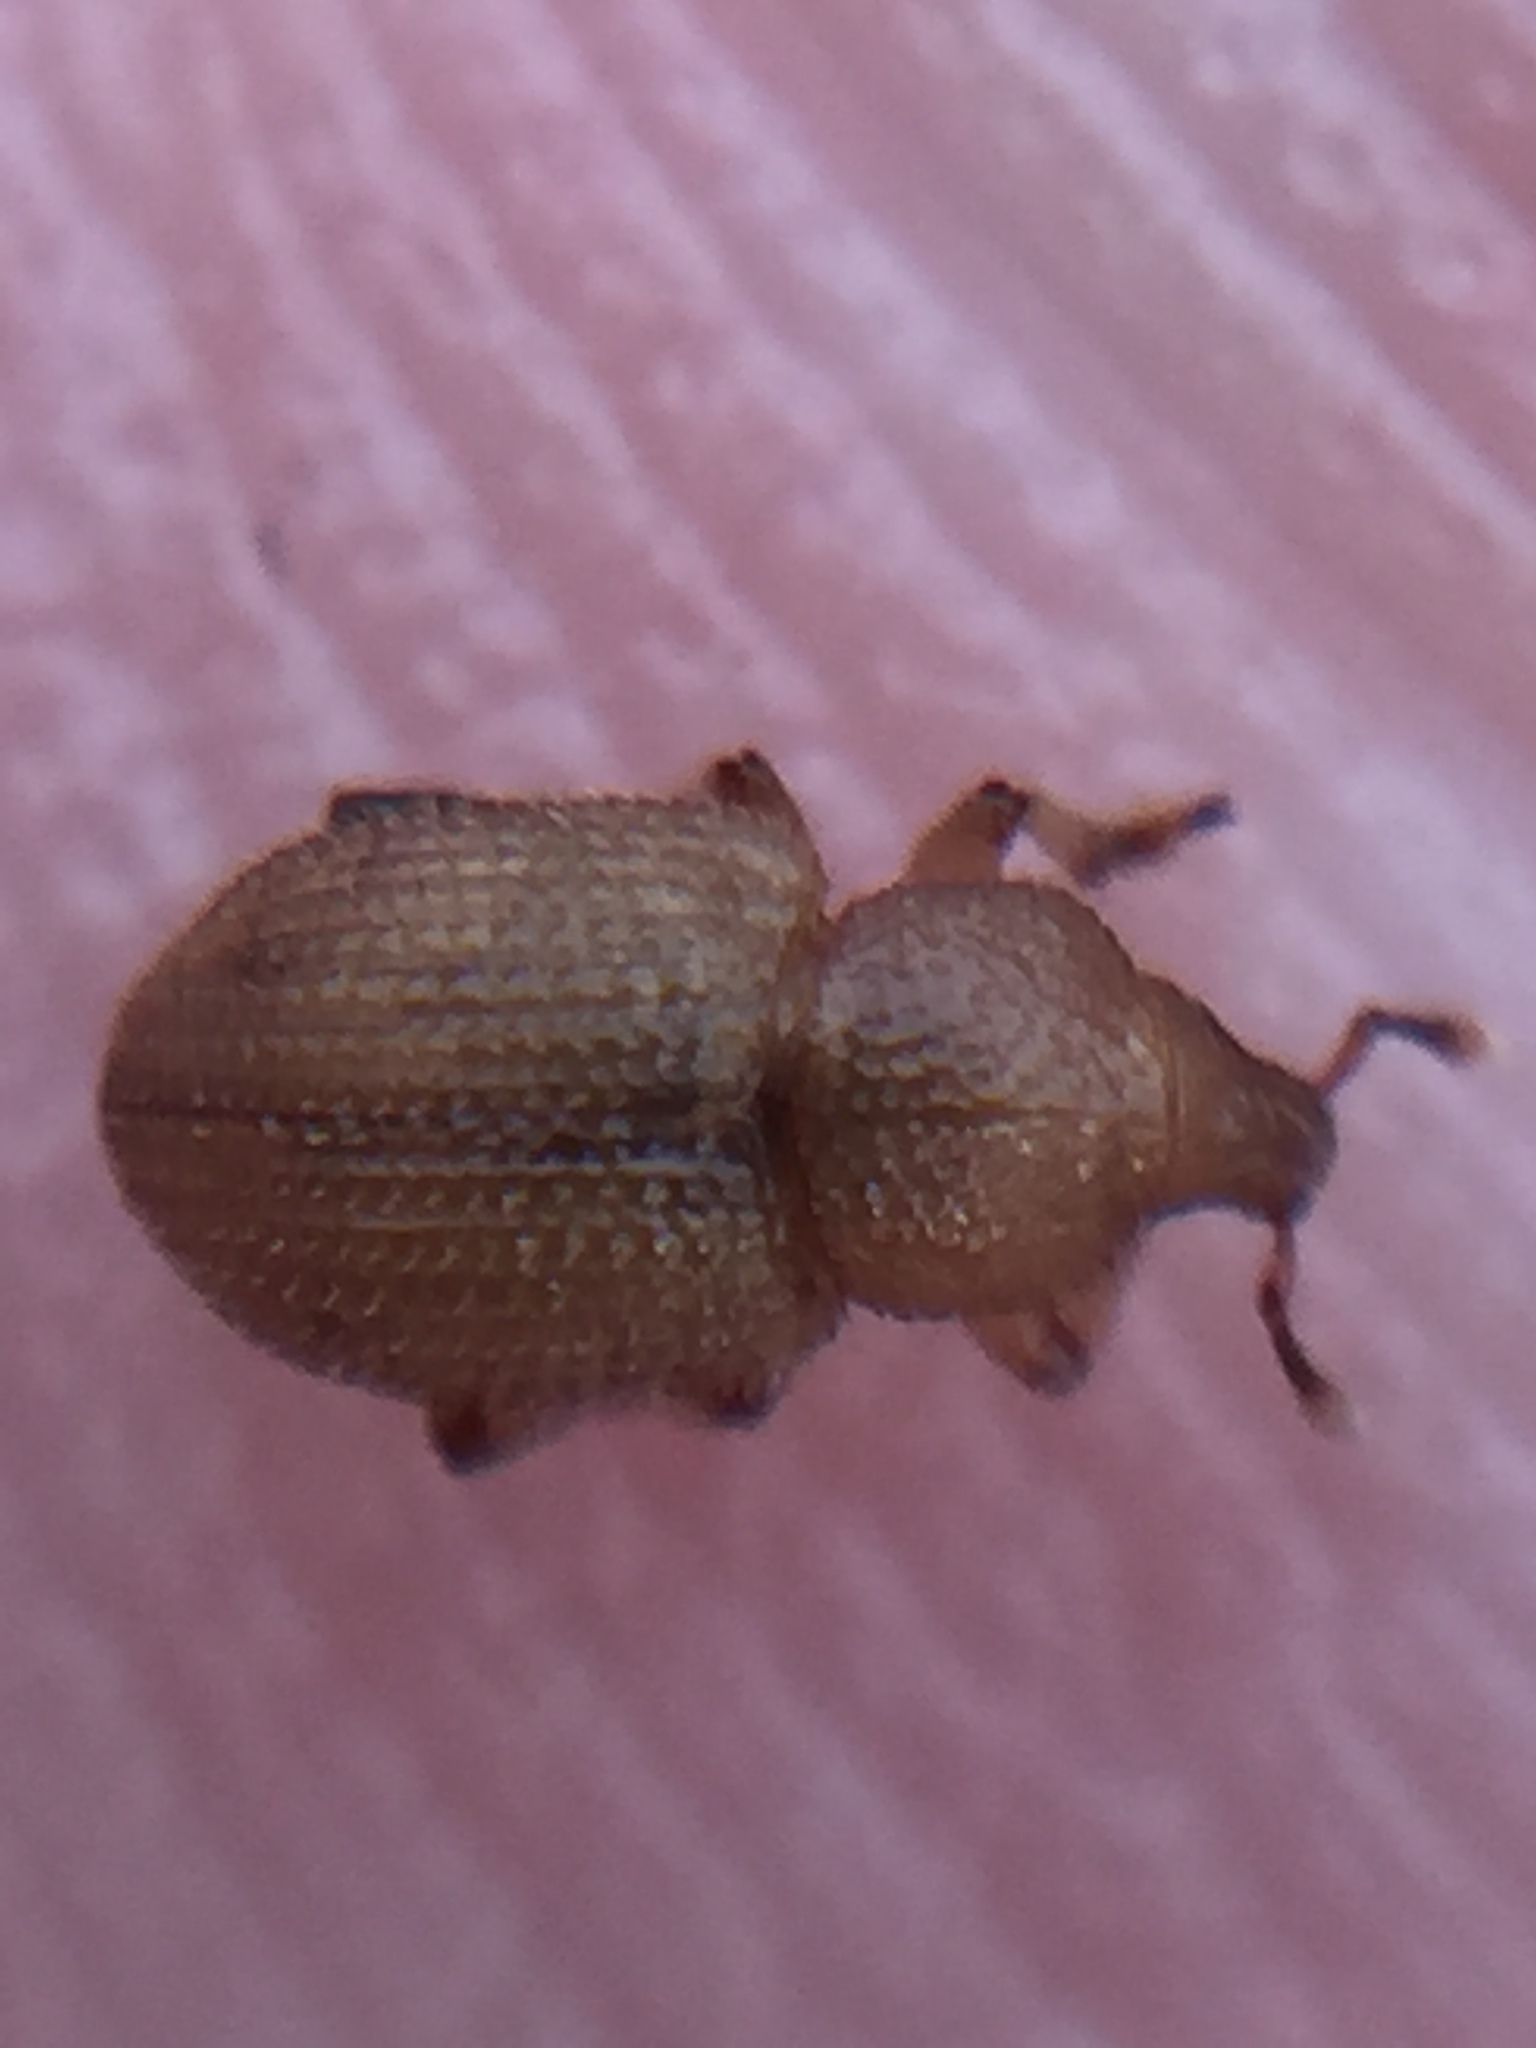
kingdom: Animalia
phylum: Arthropoda
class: Insecta
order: Coleoptera
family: Curculionidae
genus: Aphela
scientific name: Aphela algarum
